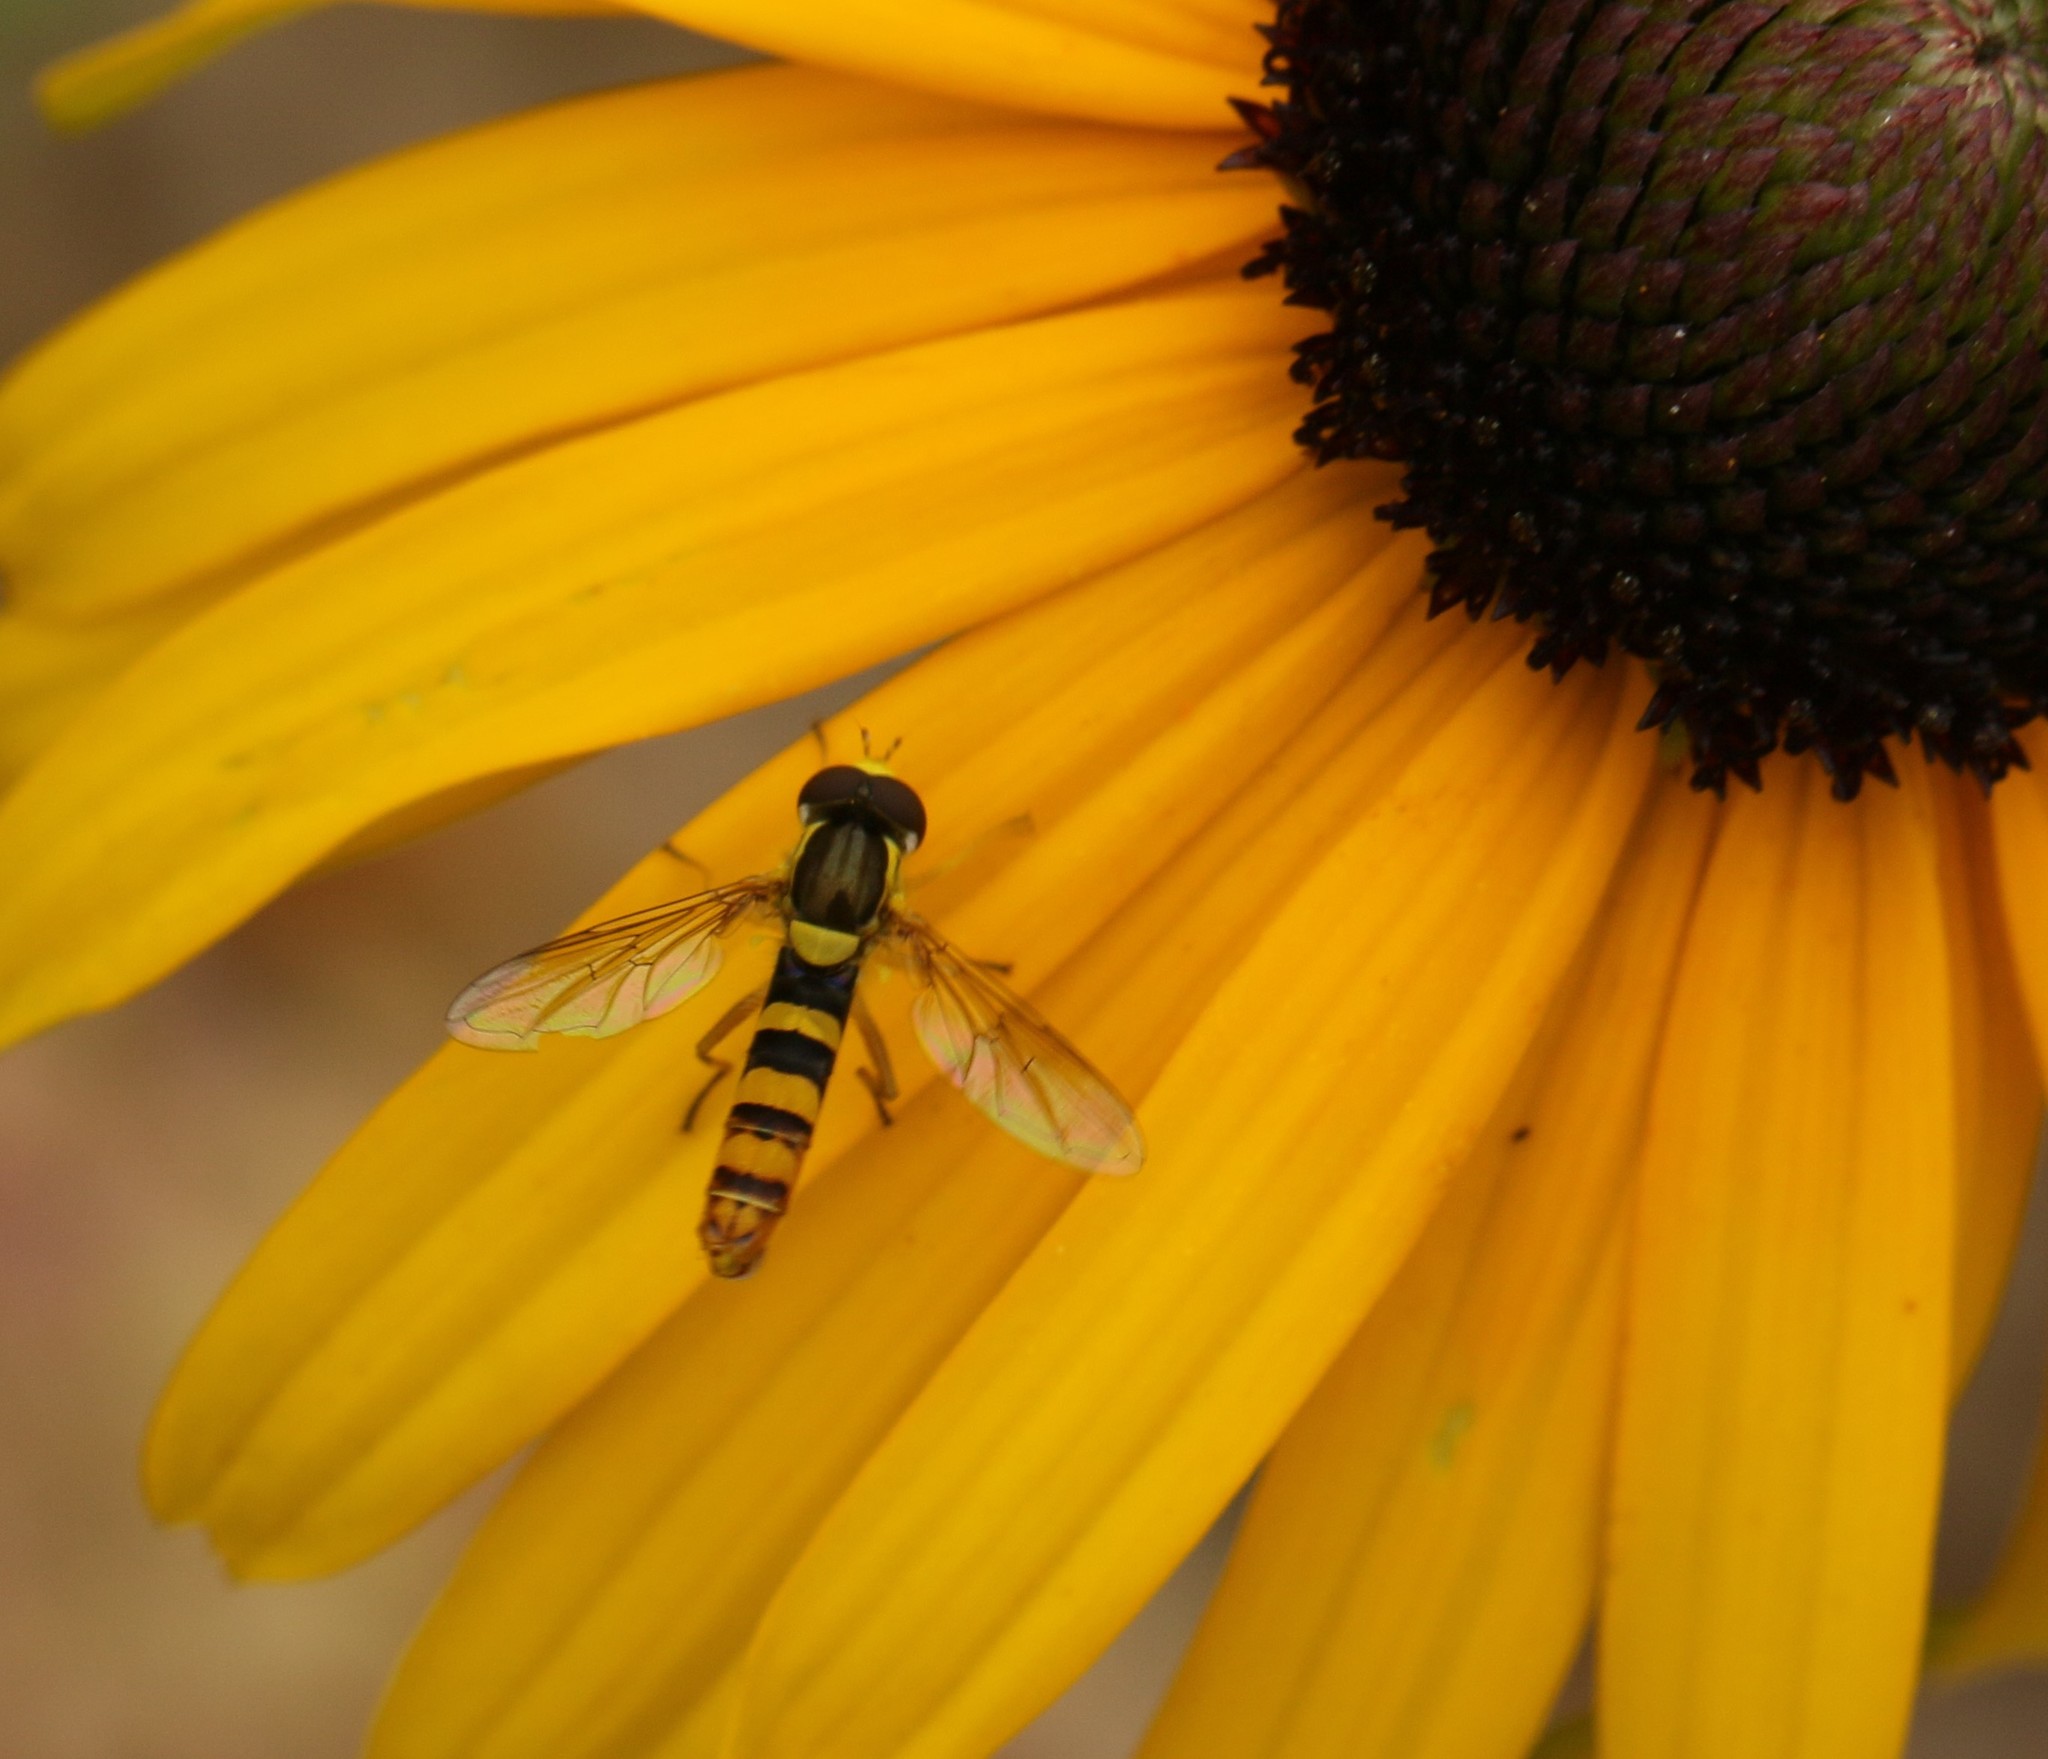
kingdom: Animalia
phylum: Arthropoda
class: Insecta
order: Diptera
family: Syrphidae
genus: Sphaerophoria
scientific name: Sphaerophoria philantha
